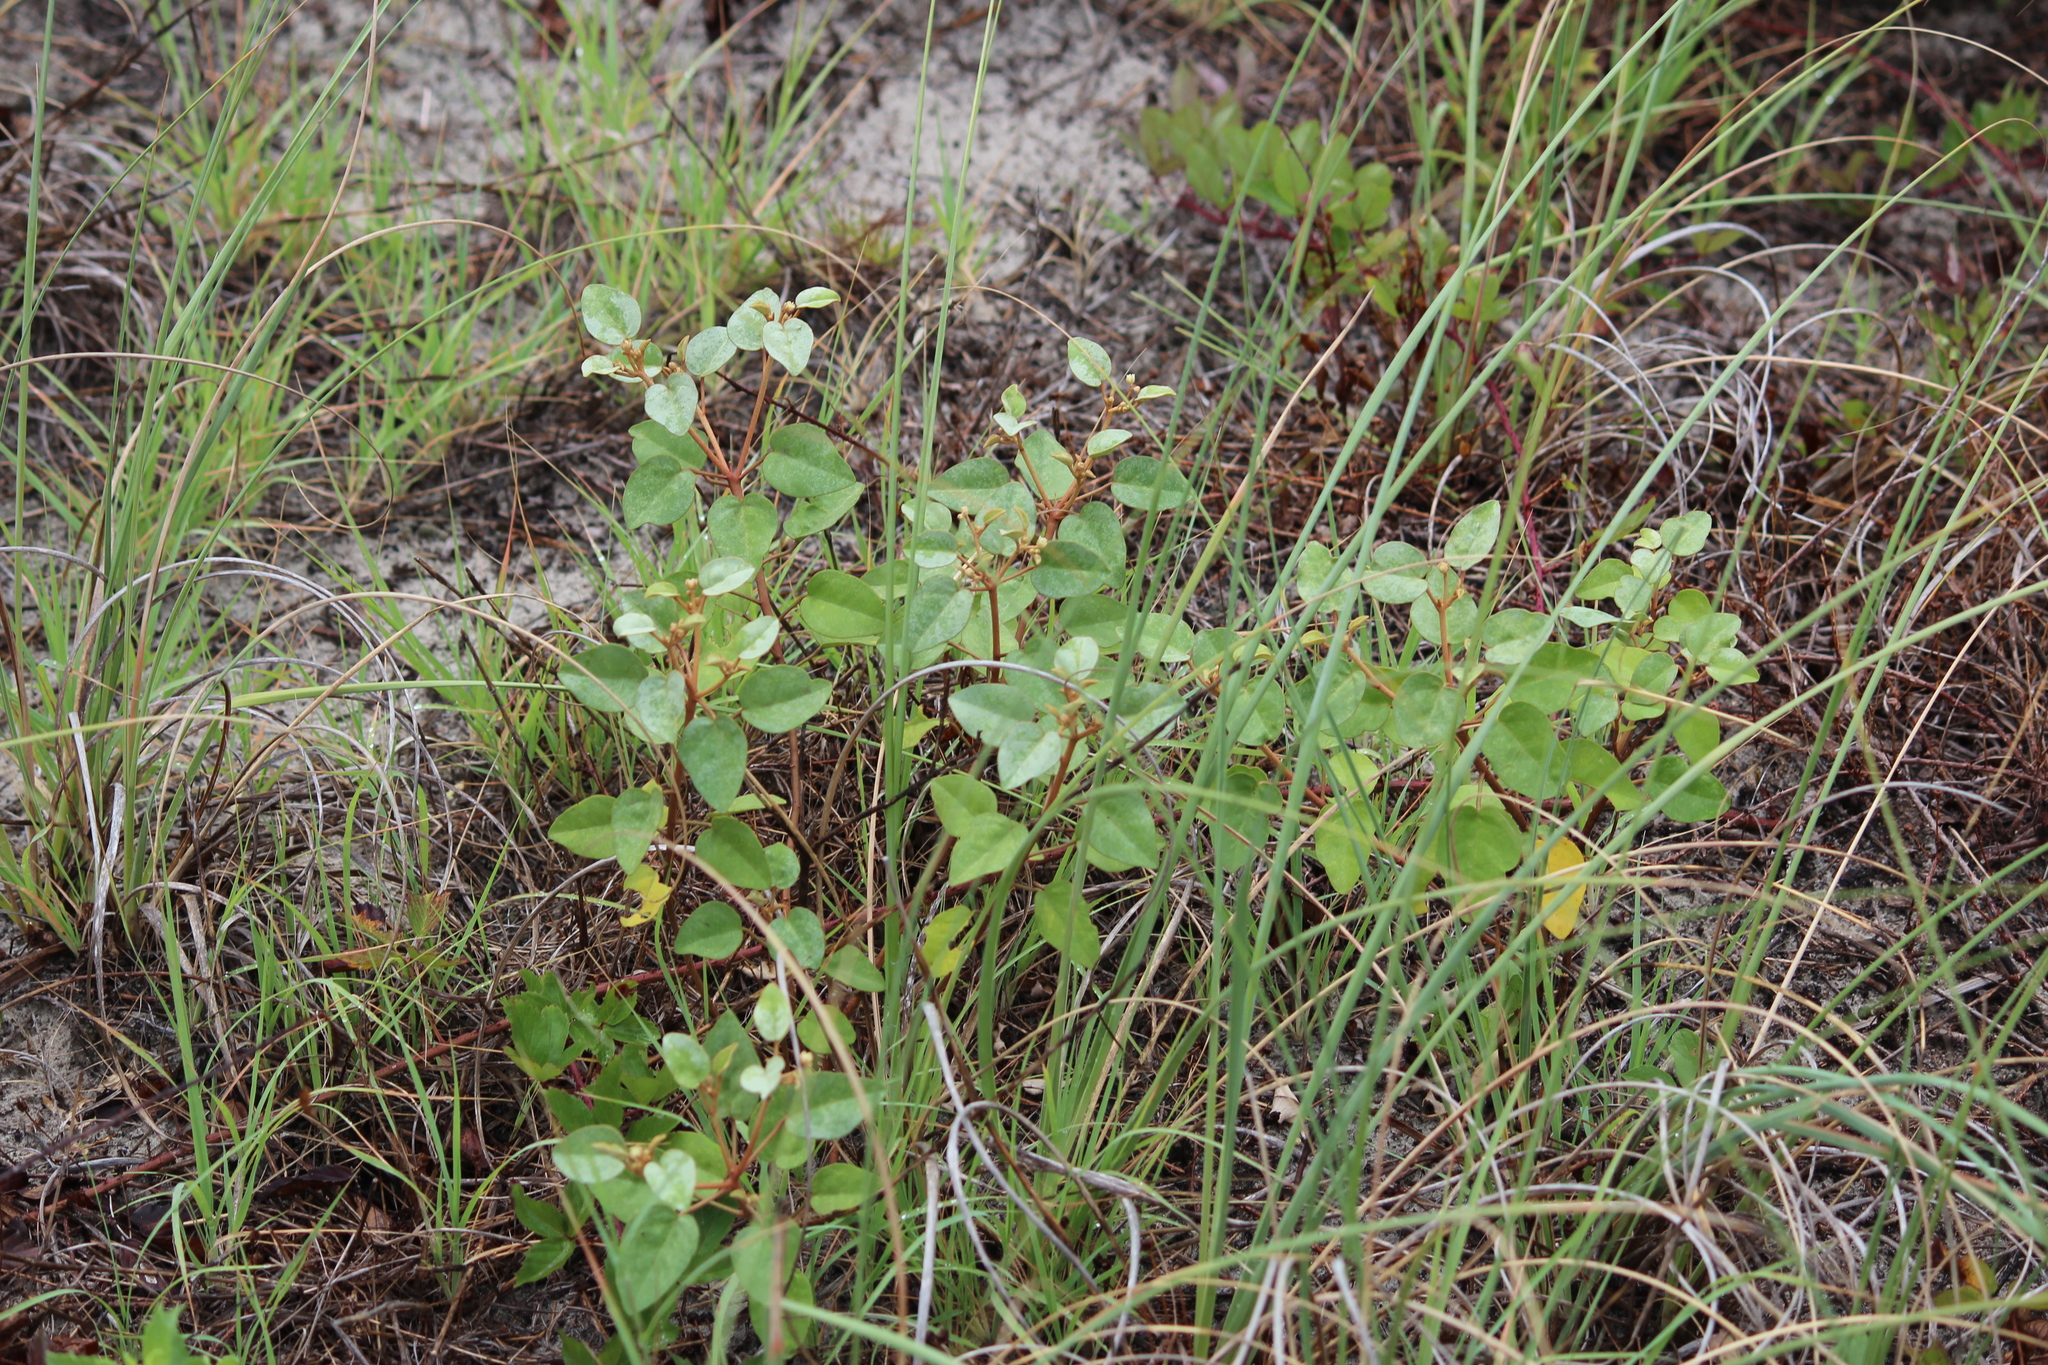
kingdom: Plantae
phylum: Tracheophyta
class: Magnoliopsida
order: Malpighiales
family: Euphorbiaceae
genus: Croton
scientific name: Croton punctatus
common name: Beach-tea
